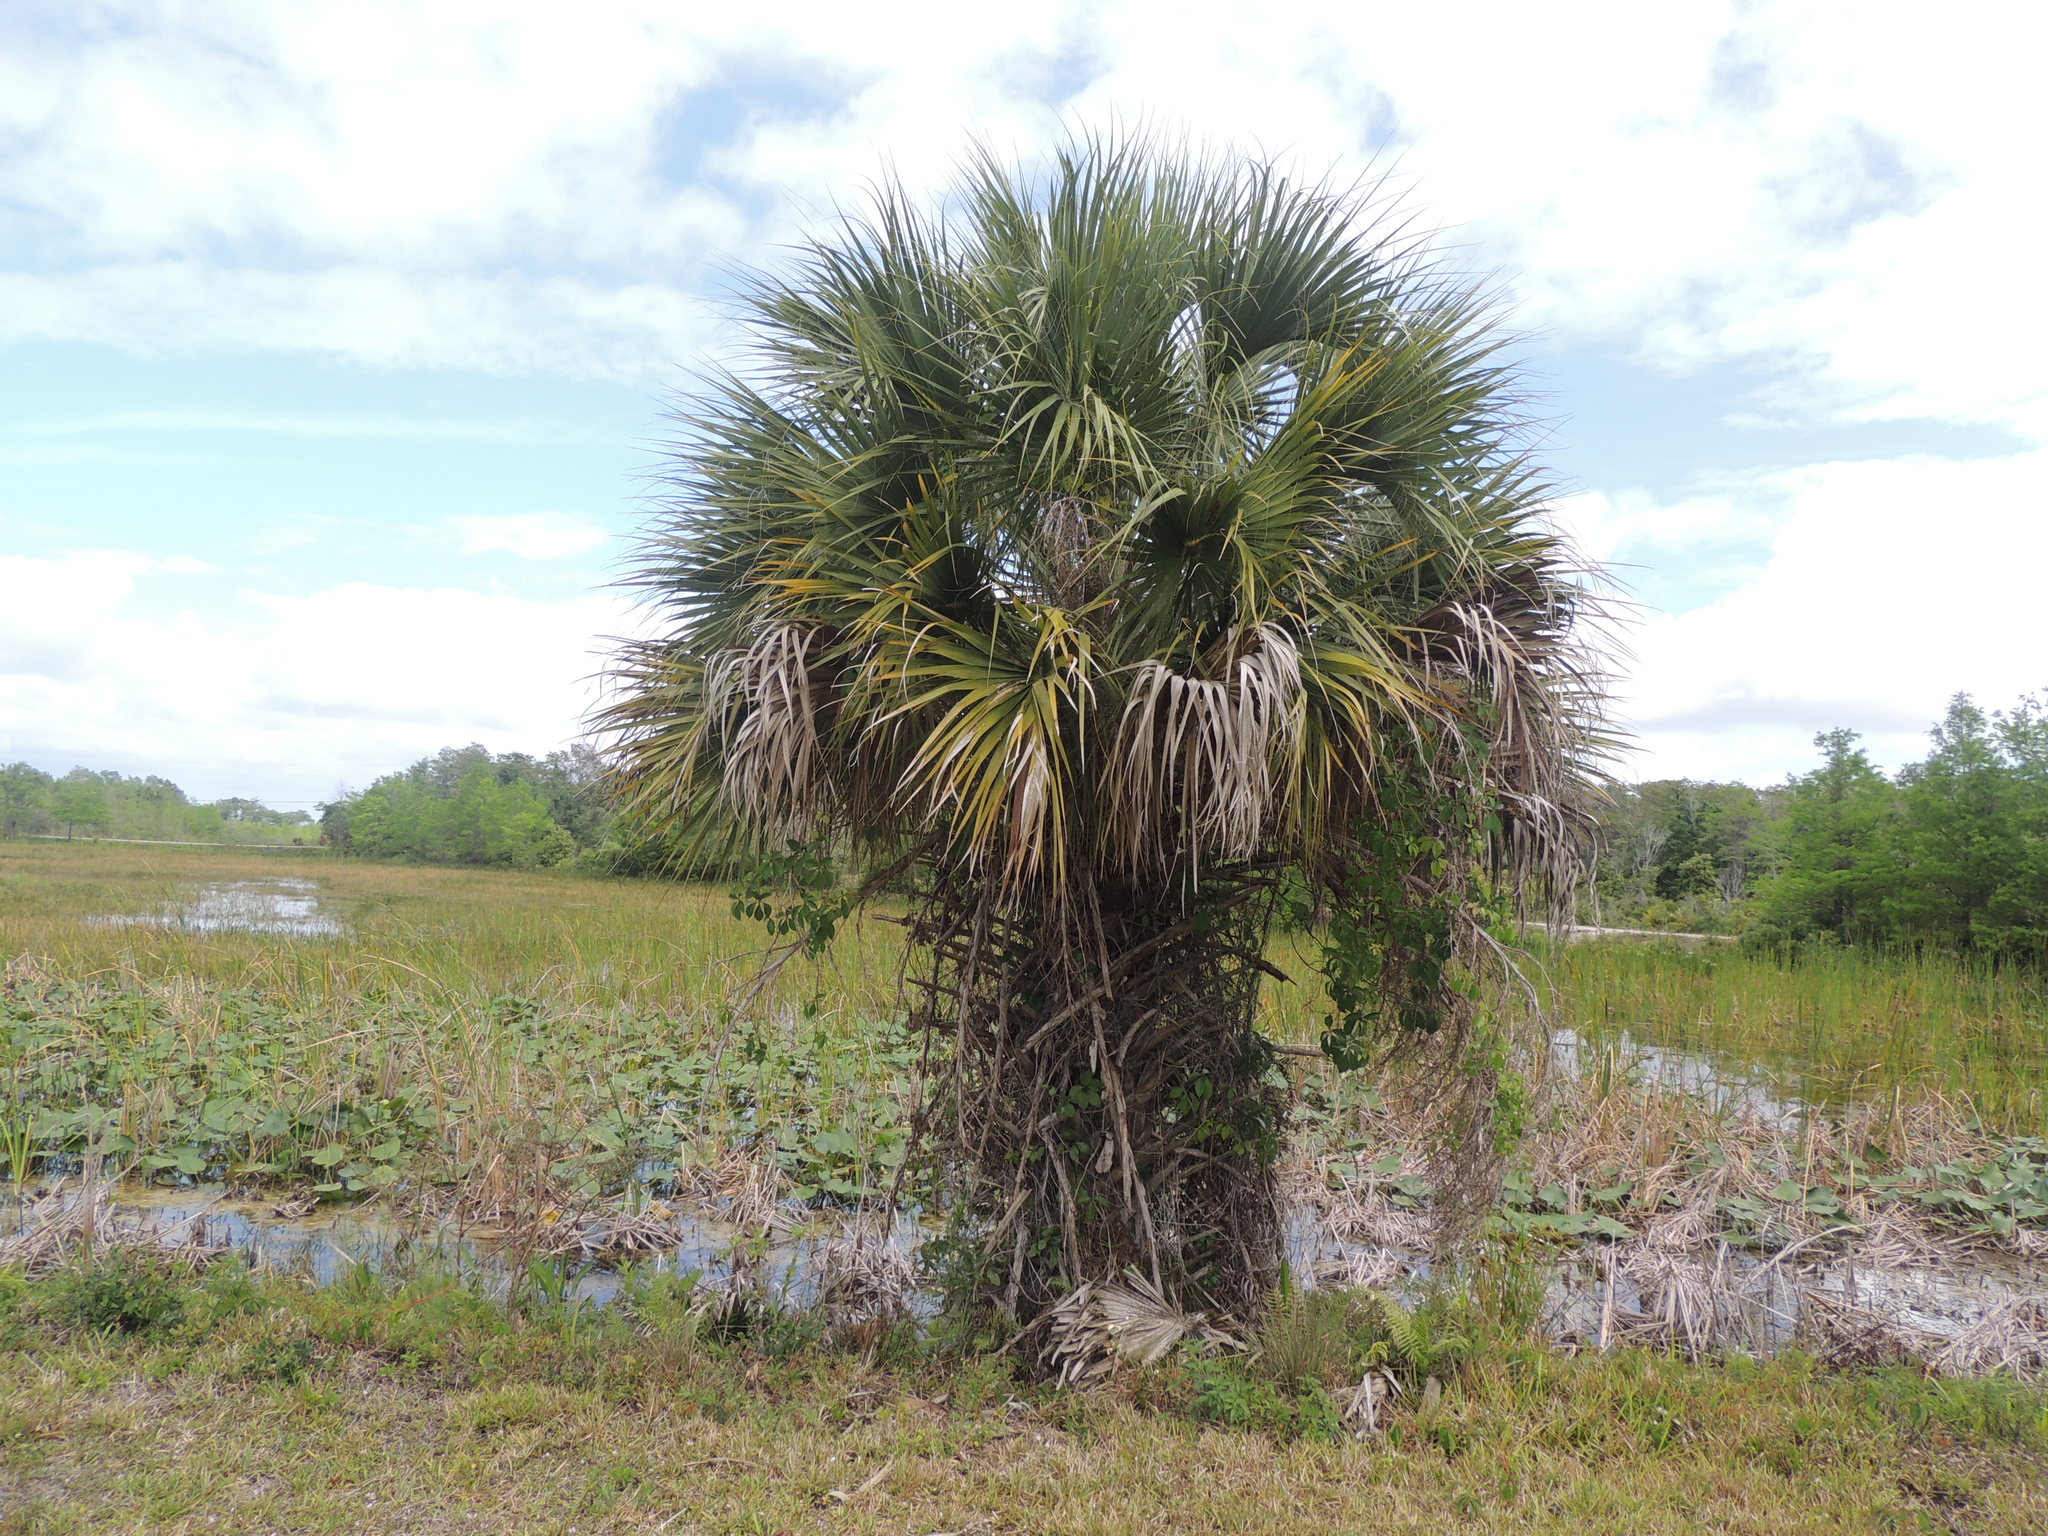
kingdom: Plantae
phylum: Tracheophyta
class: Liliopsida
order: Arecales
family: Arecaceae
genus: Sabal
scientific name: Sabal palmetto
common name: Blue palmetto
